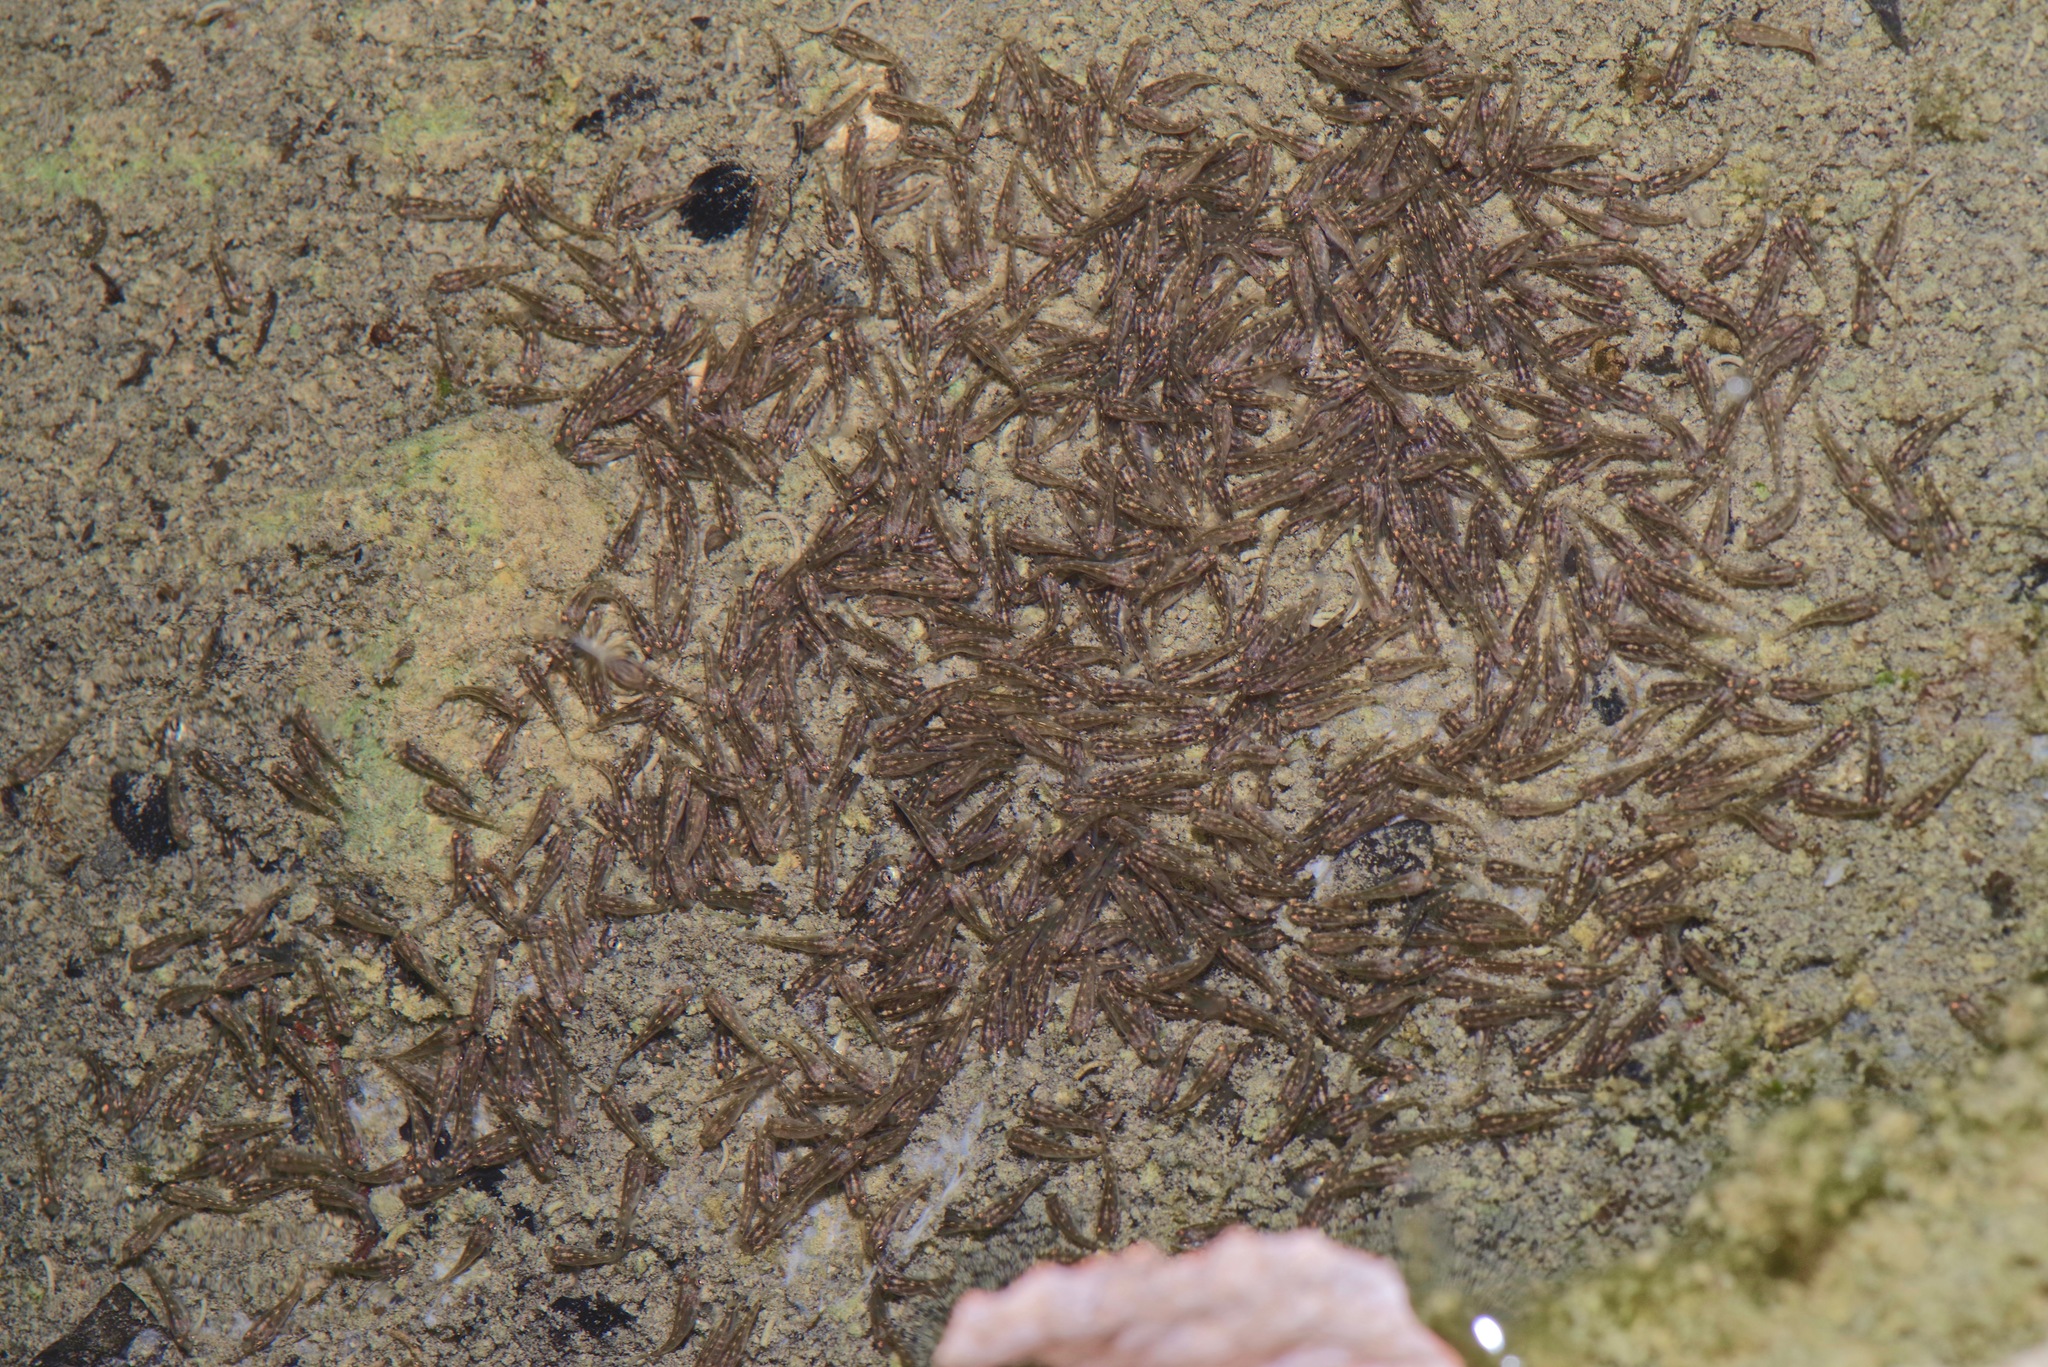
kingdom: Animalia
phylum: Chordata
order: Perciformes
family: Cichlidae
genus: Herichthys
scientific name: Herichthys cyanoguttatus
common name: Rio grande cichlid
